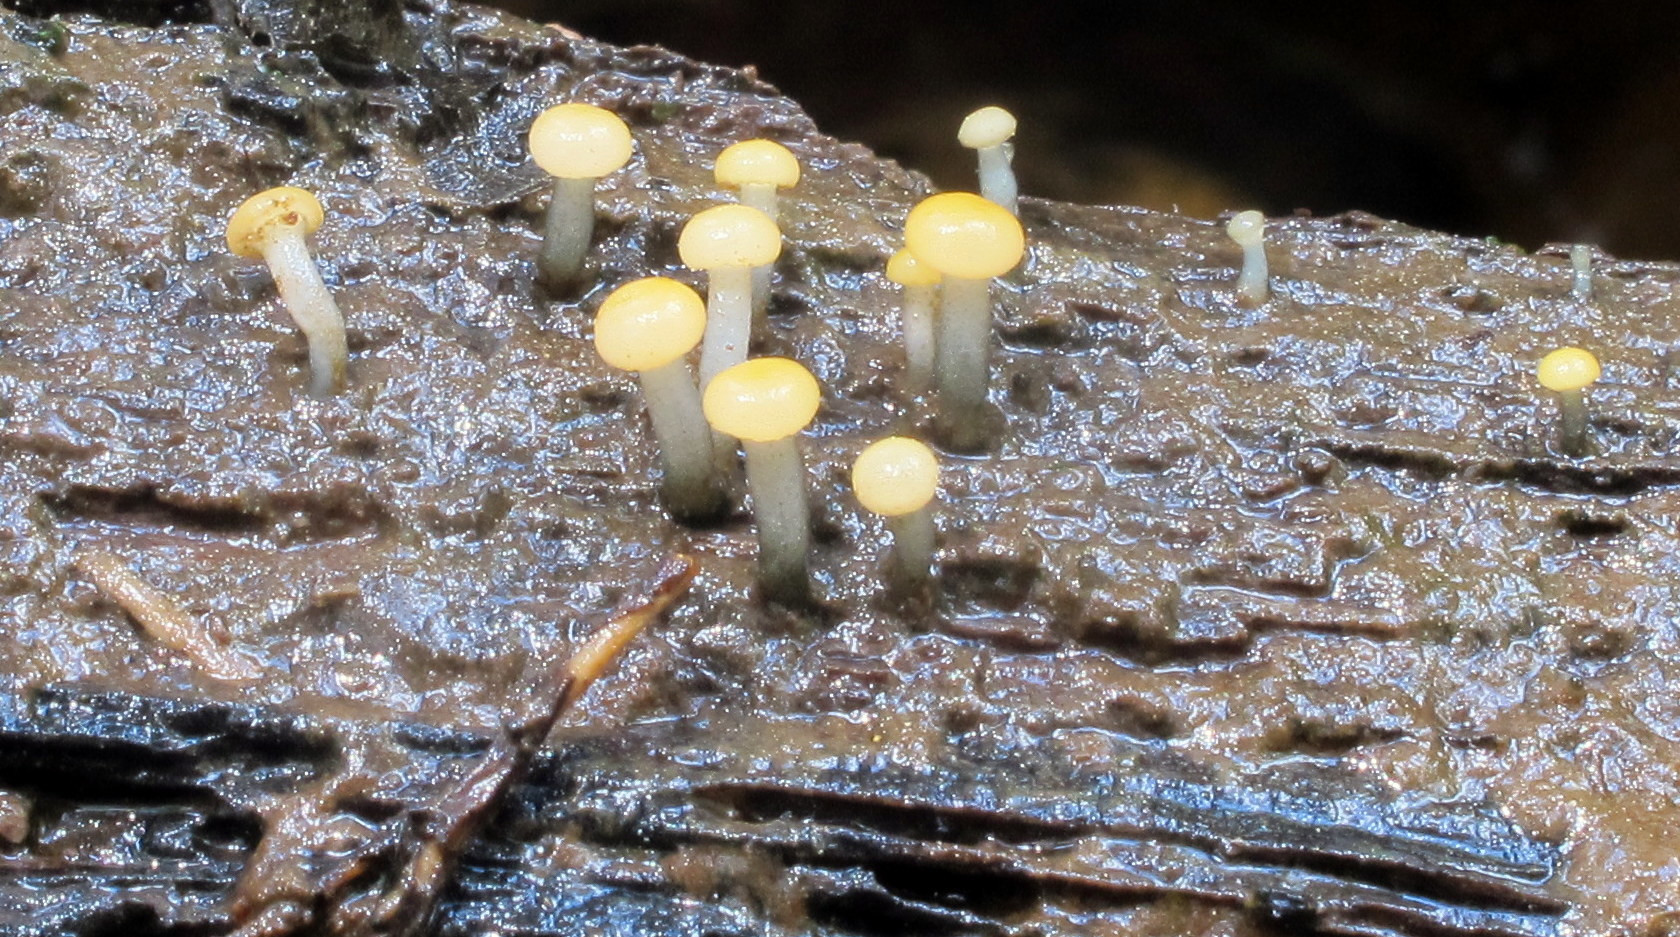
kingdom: Fungi
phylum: Ascomycota
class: Leotiomycetes
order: Helotiales
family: Vibrisseaceae
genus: Vibrissea
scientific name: Vibrissea truncorum
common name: Stream beacon
